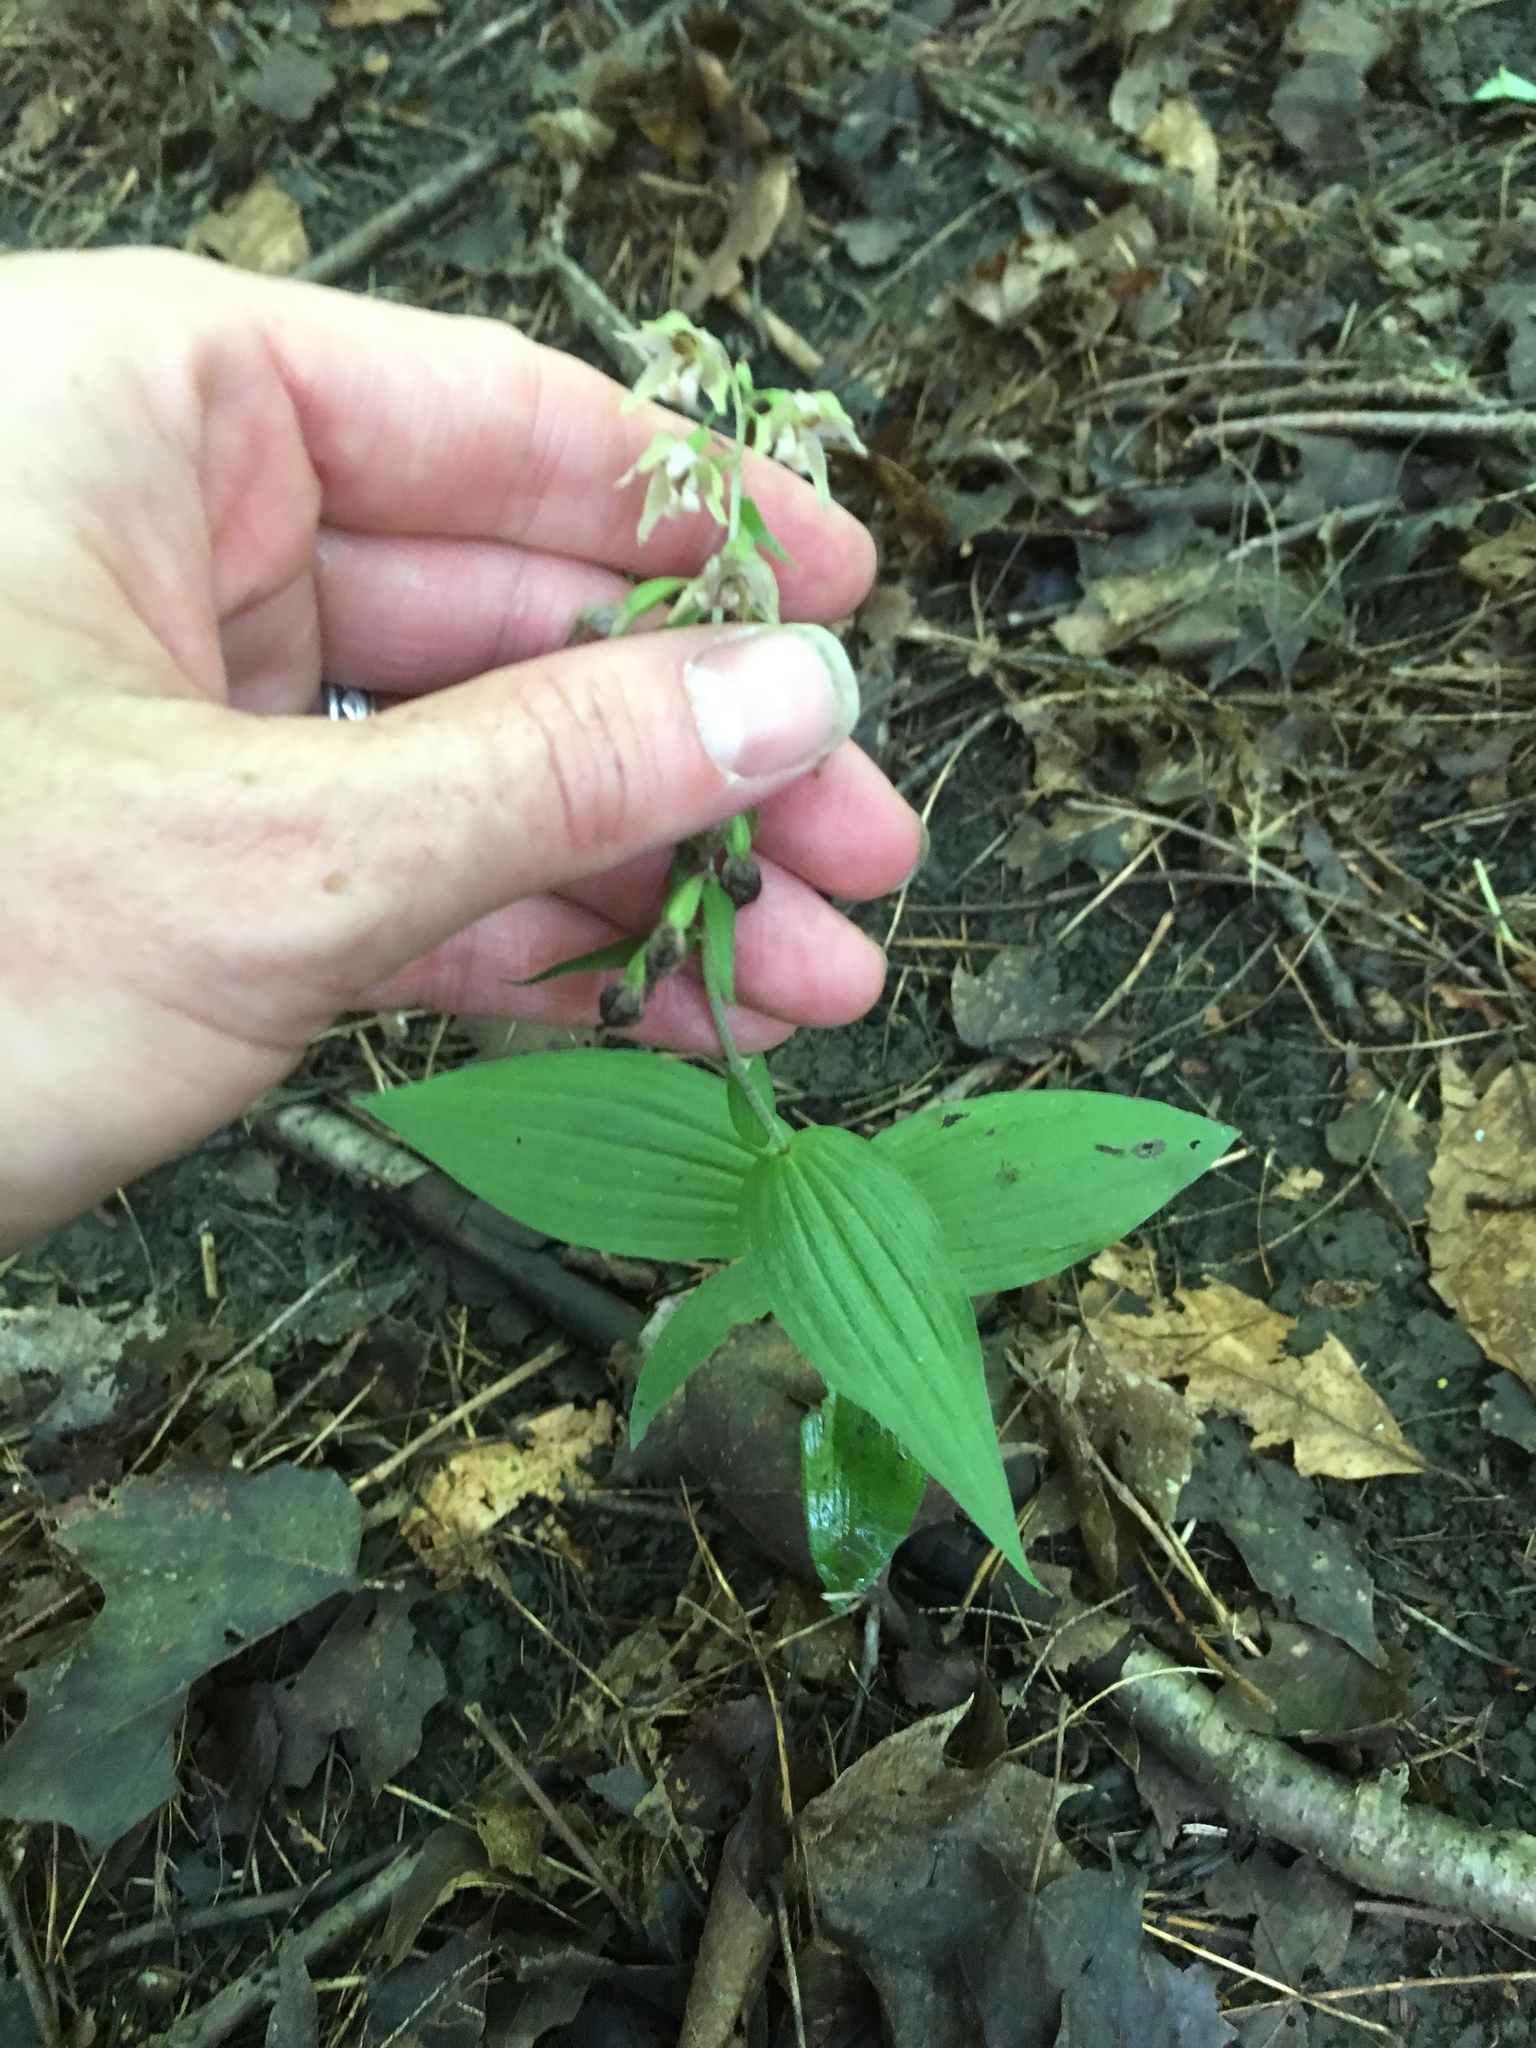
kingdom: Plantae
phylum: Tracheophyta
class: Liliopsida
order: Asparagales
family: Orchidaceae
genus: Epipactis
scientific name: Epipactis helleborine
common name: Broad-leaved helleborine
